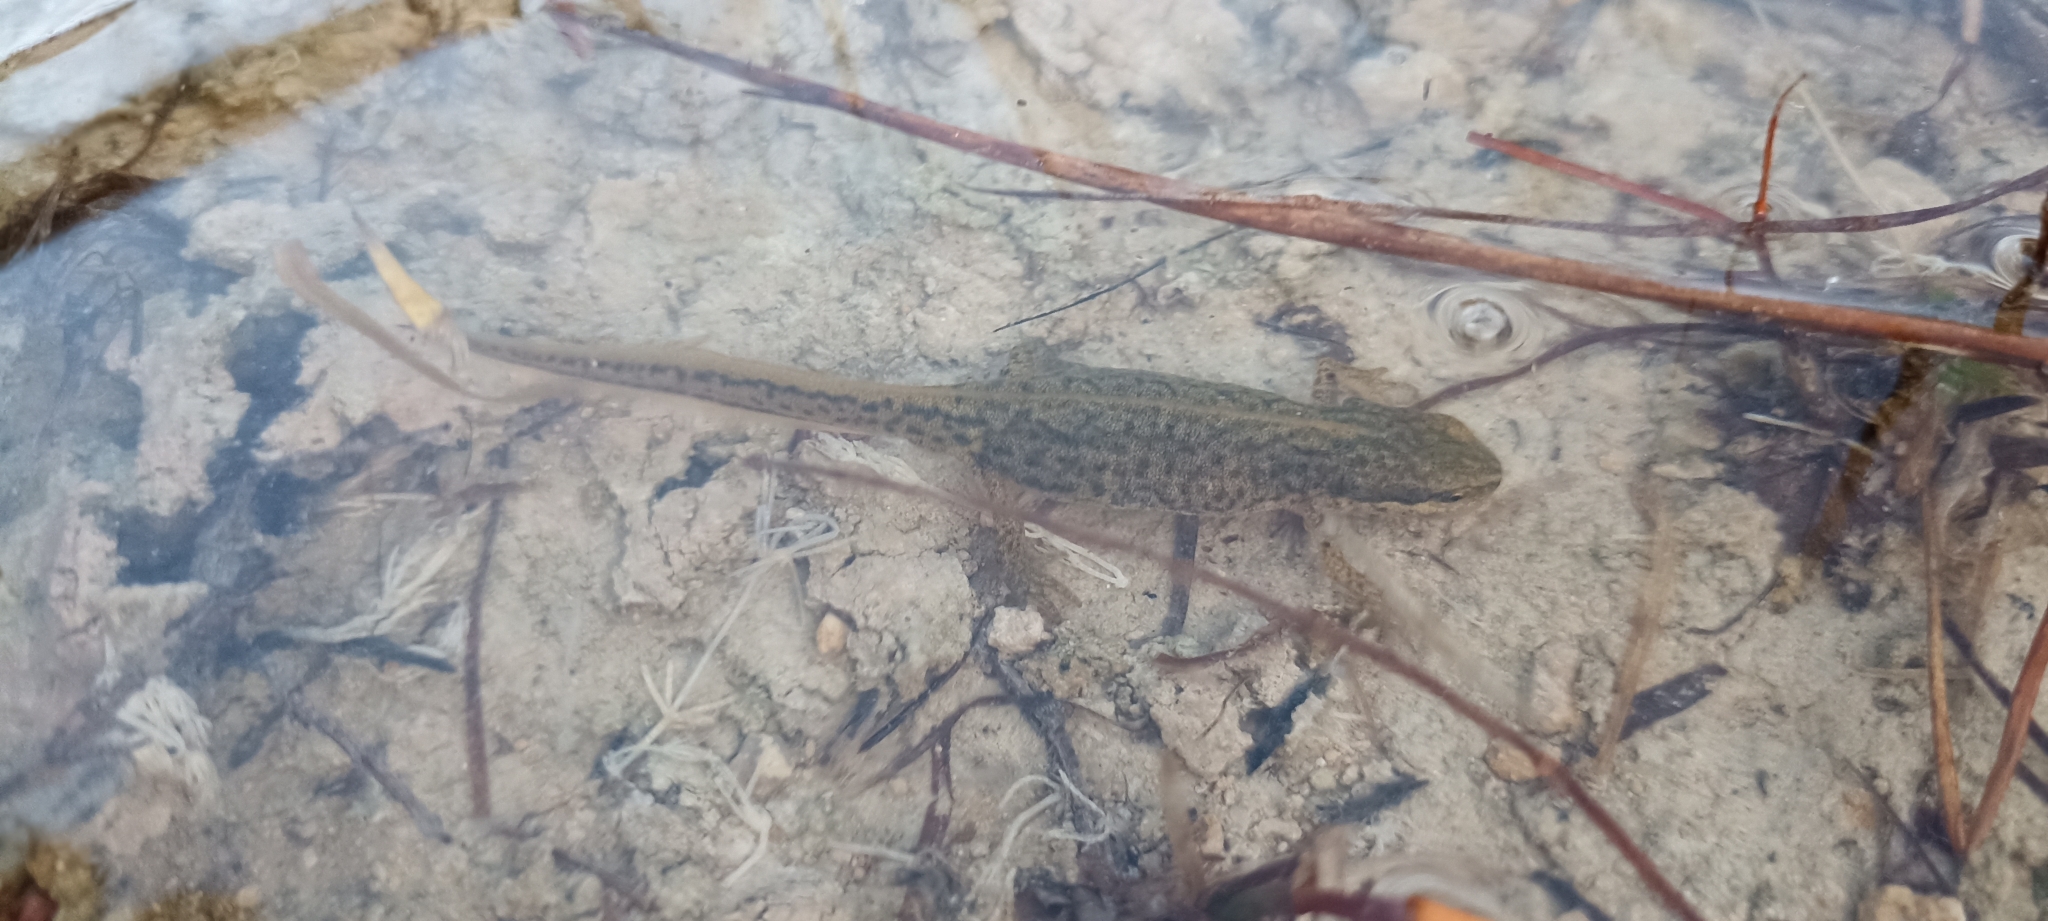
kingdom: Animalia
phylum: Chordata
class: Amphibia
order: Caudata
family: Salamandridae
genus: Lissotriton
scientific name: Lissotriton helveticus
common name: Palmate newt
